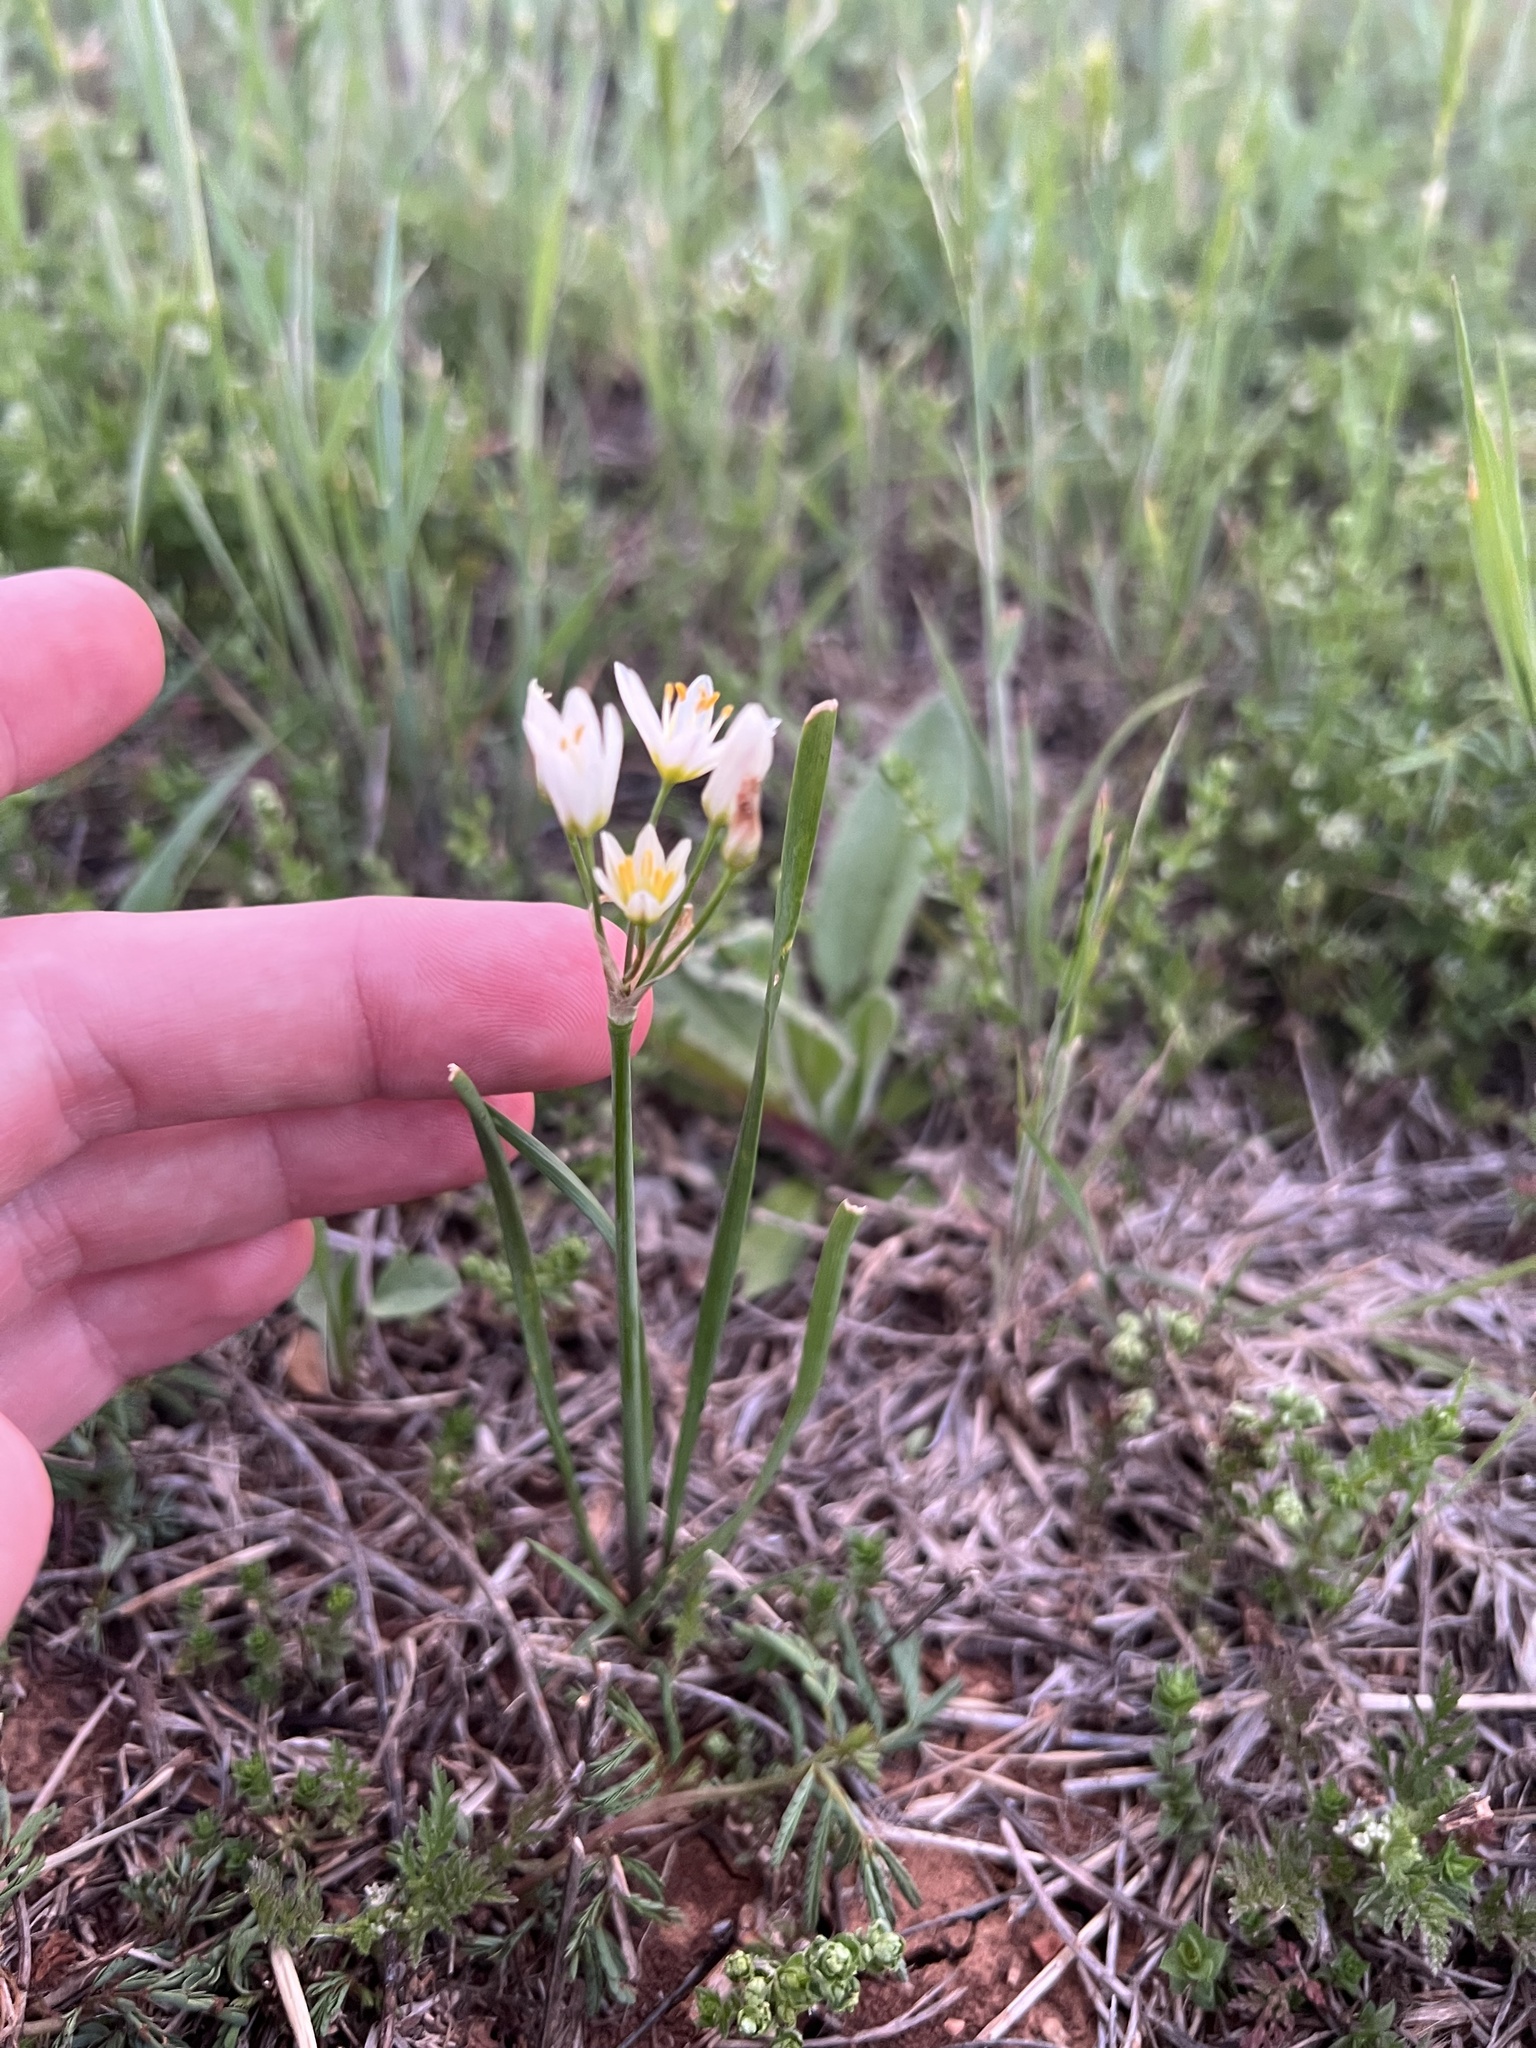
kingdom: Plantae
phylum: Tracheophyta
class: Liliopsida
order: Asparagales
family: Amaryllidaceae
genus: Nothoscordum
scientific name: Nothoscordum bivalve
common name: Crow-poison
